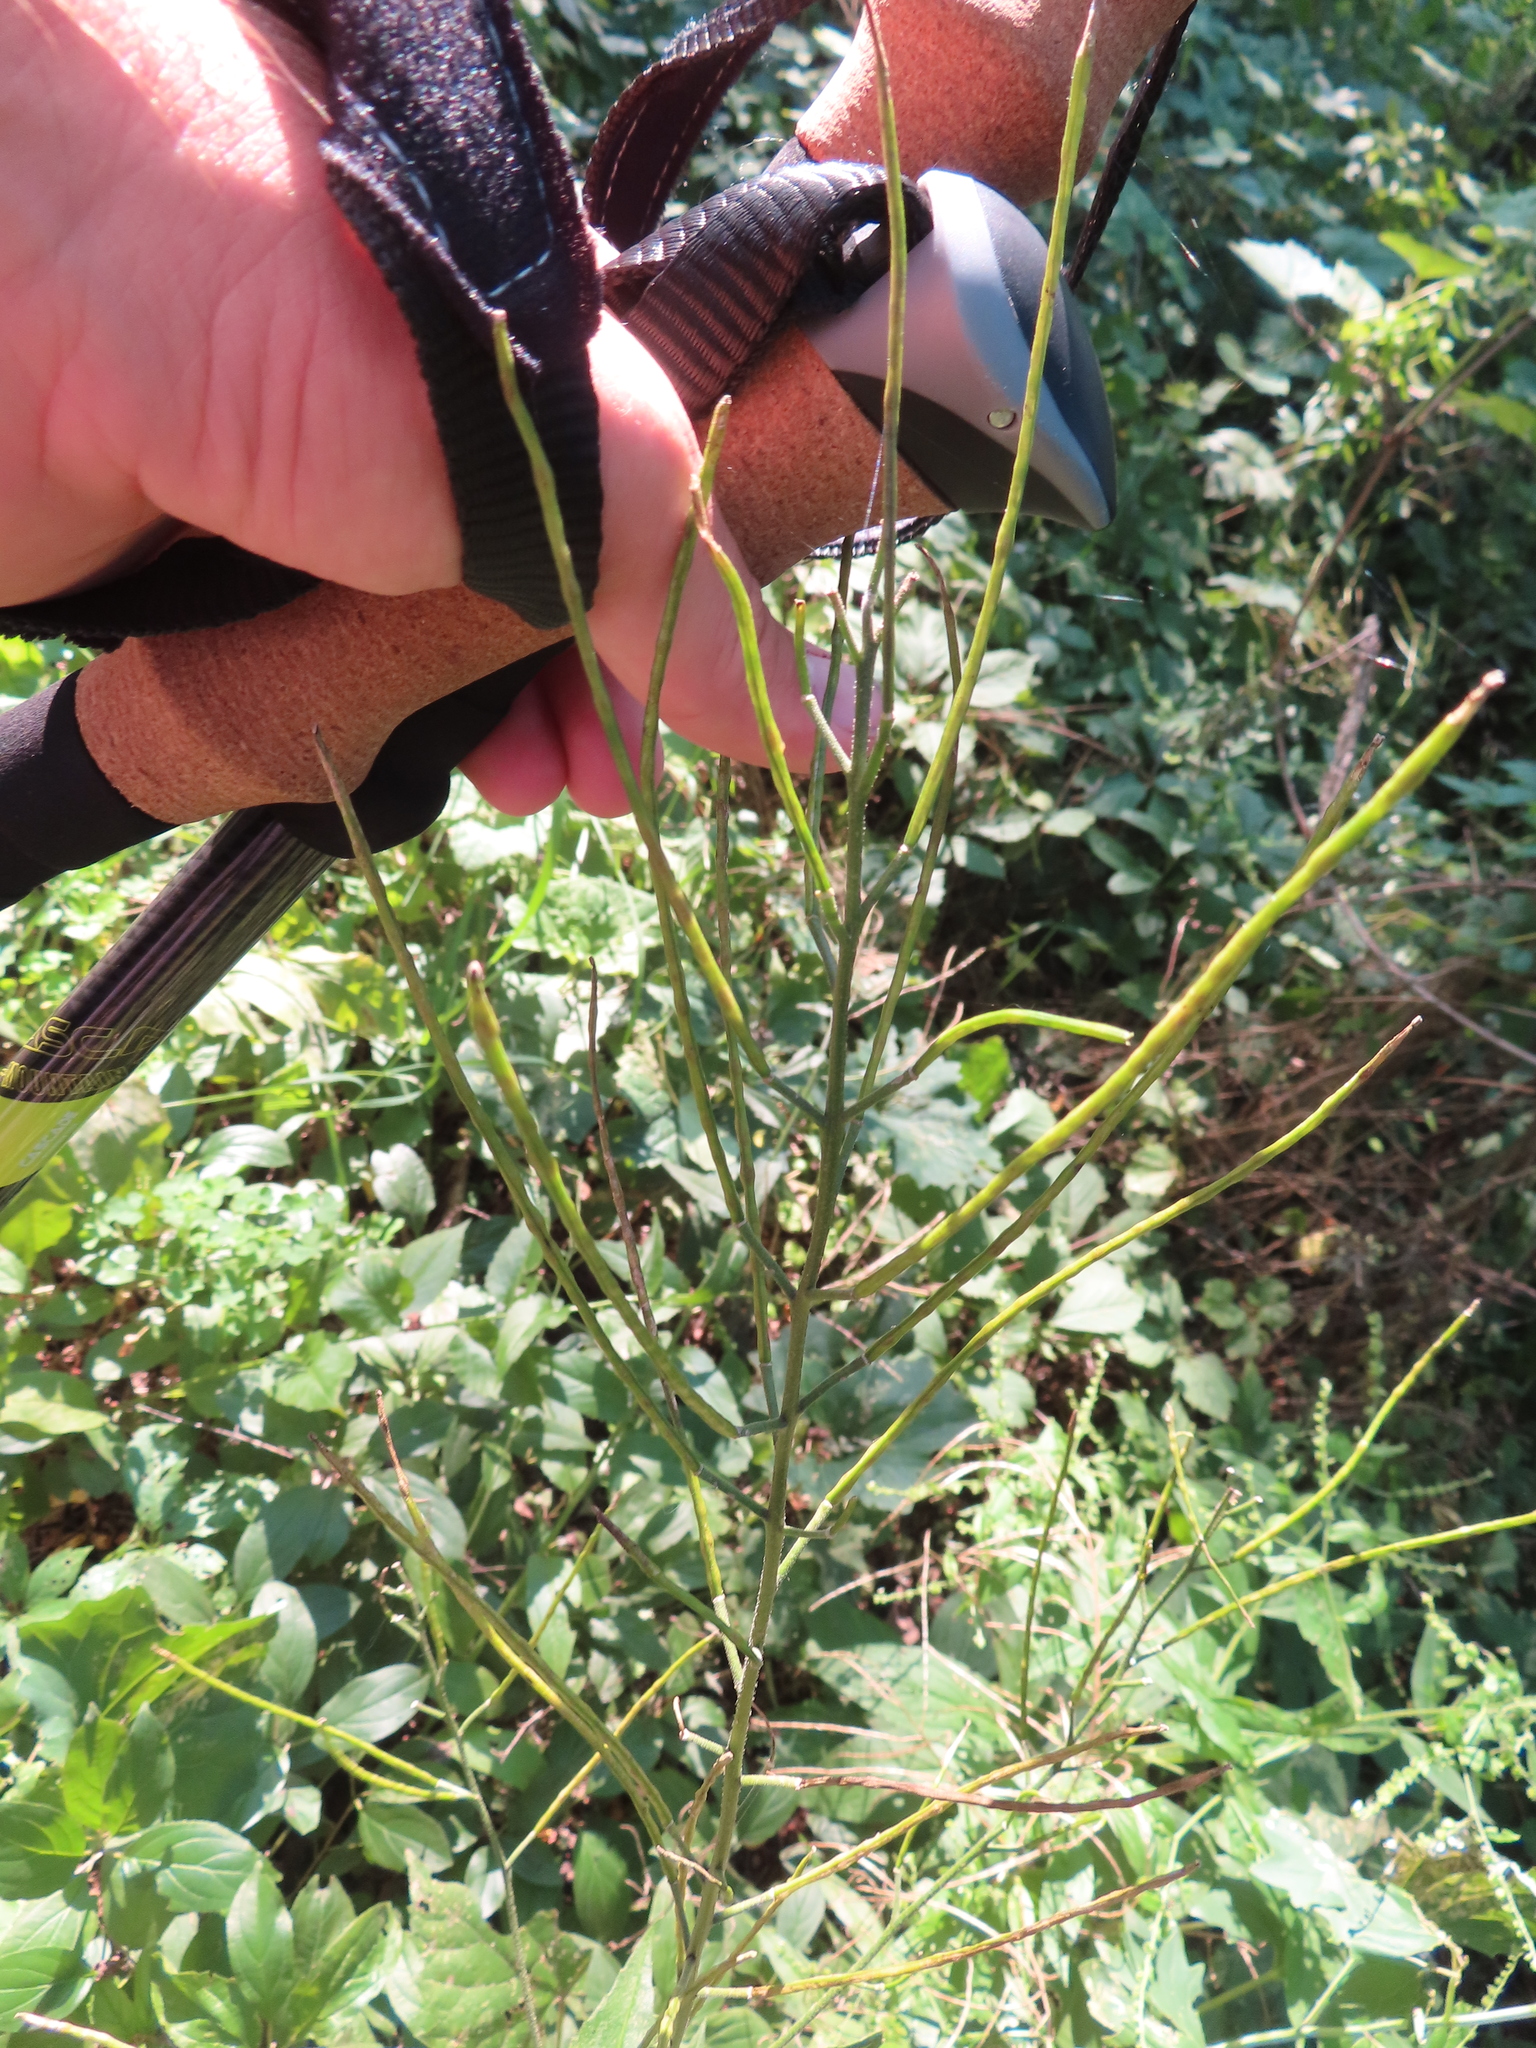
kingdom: Plantae
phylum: Tracheophyta
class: Magnoliopsida
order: Brassicales
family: Brassicaceae
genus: Hesperis
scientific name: Hesperis matronalis
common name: Dame's-violet
